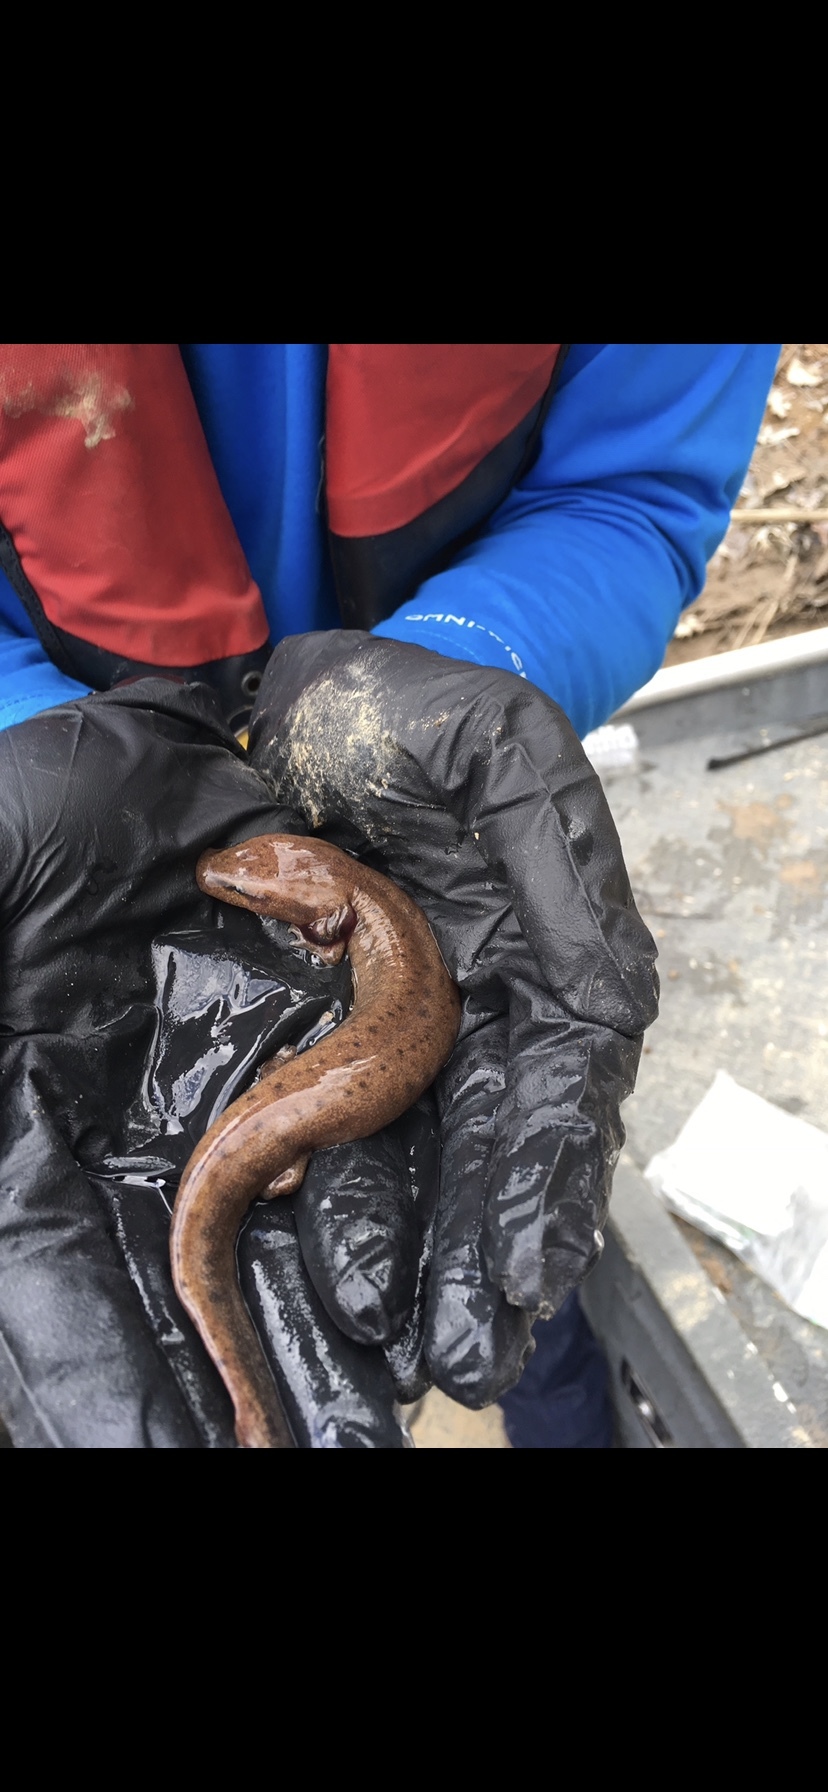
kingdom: Animalia
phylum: Chordata
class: Amphibia
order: Caudata
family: Proteidae
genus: Necturus
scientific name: Necturus alabamensis
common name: Alabama waterdog
